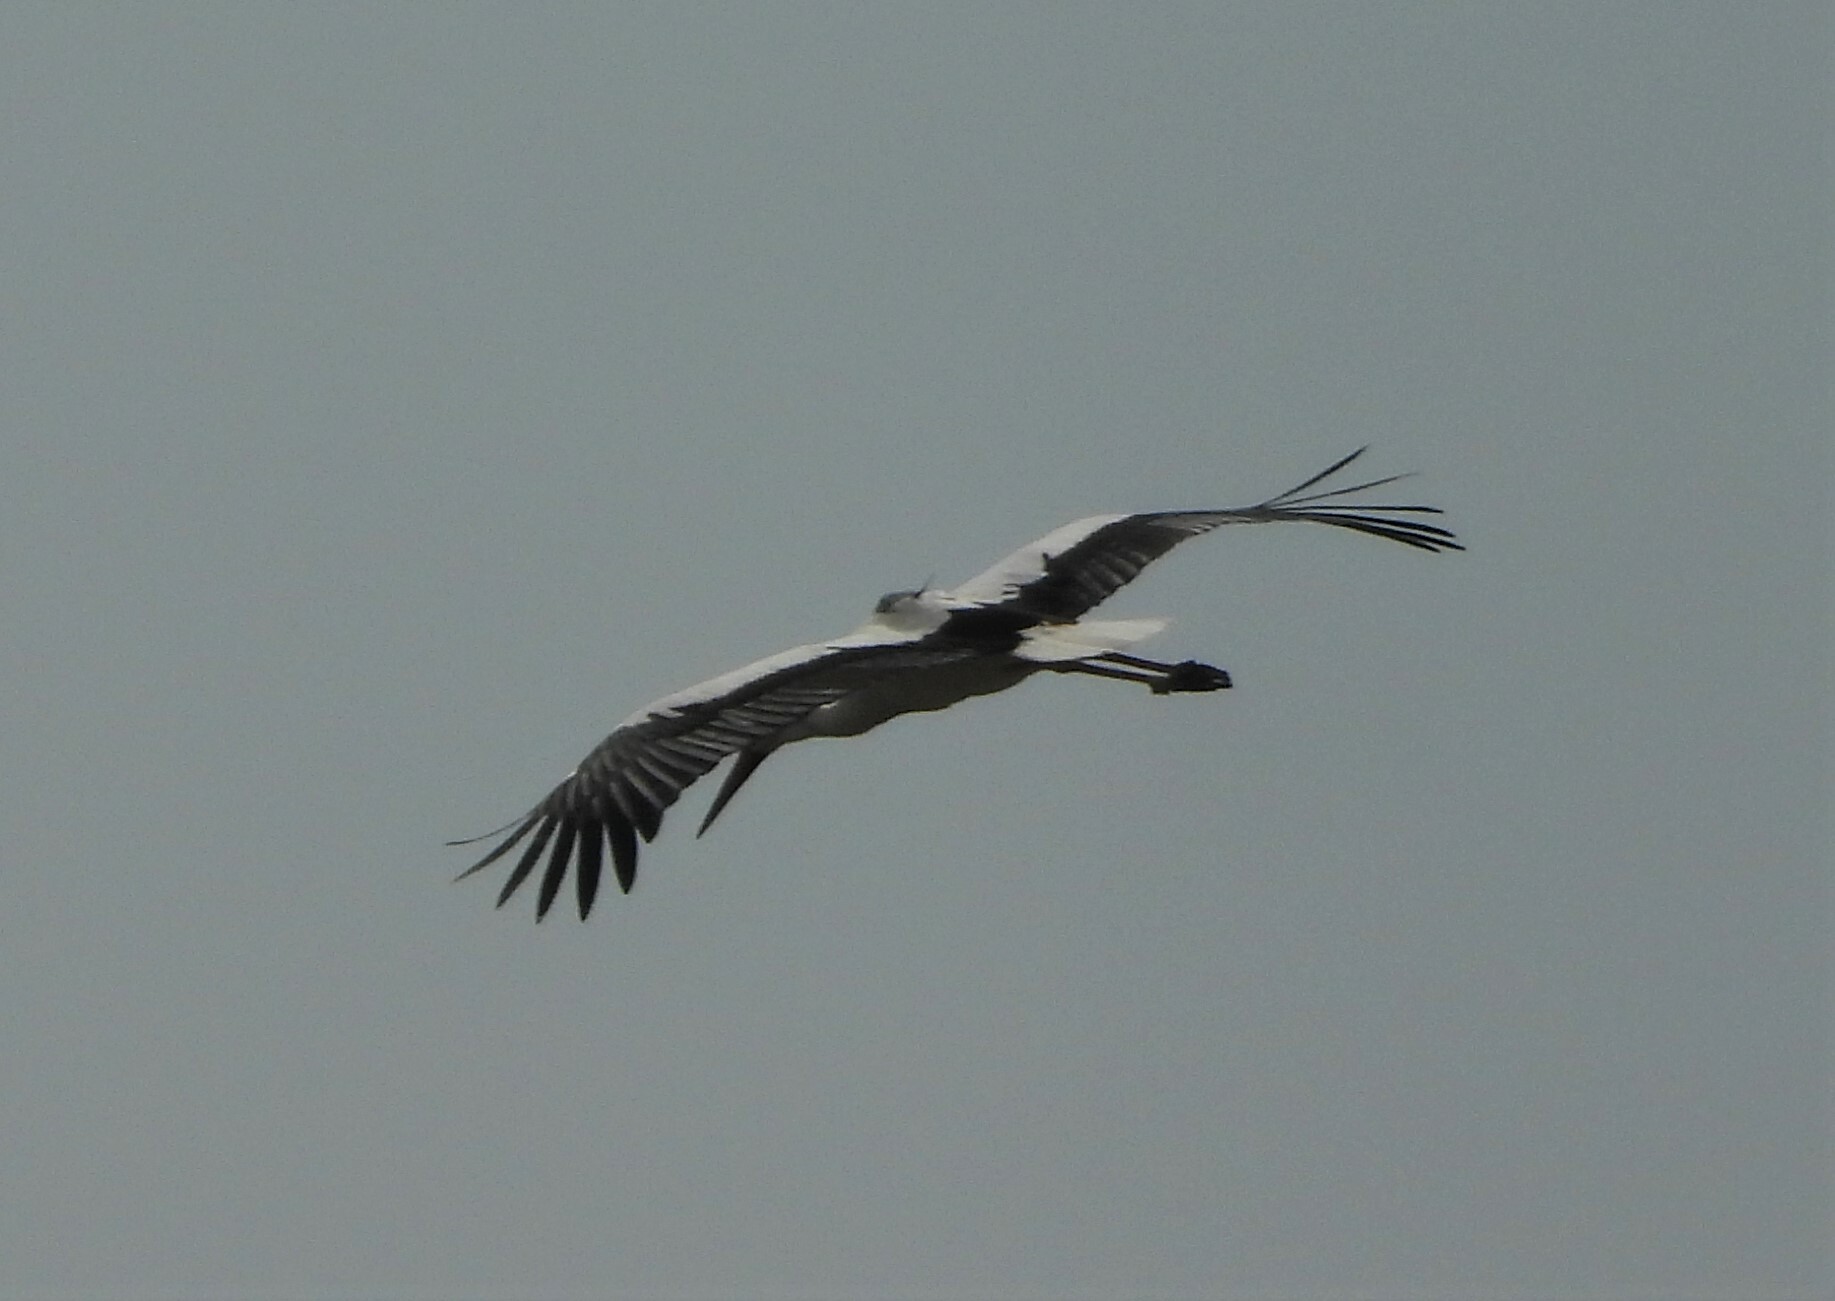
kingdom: Animalia
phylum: Chordata
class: Aves
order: Ciconiiformes
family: Ciconiidae
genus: Ciconia
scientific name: Ciconia ciconia
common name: White stork
